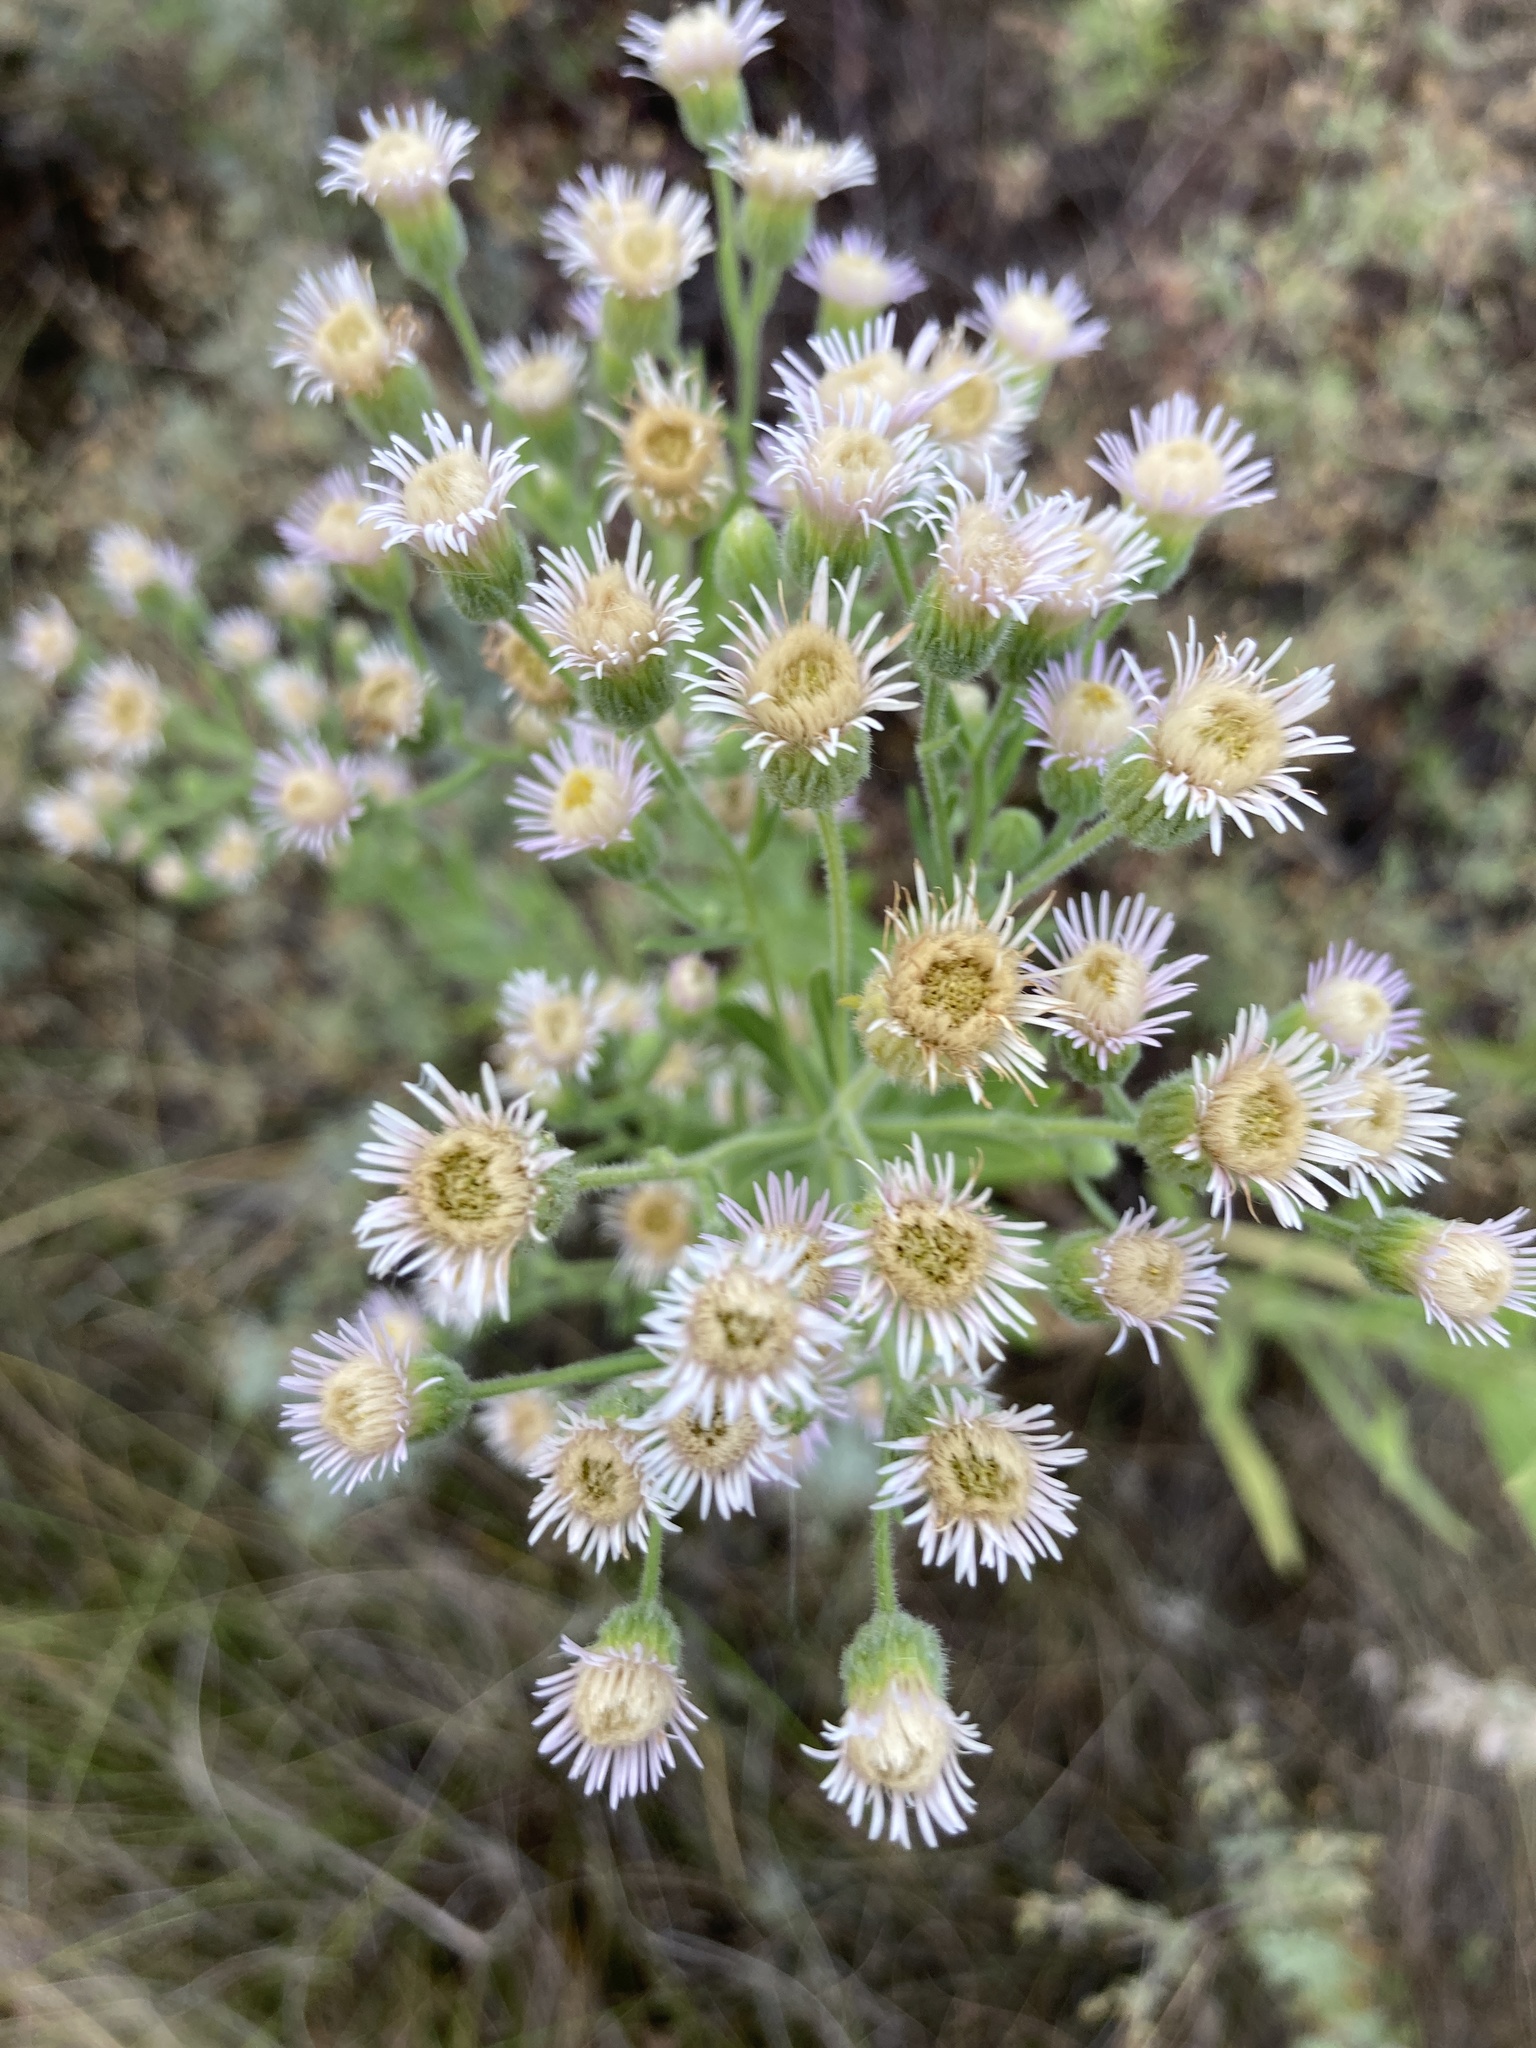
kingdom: Plantae
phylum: Tracheophyta
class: Magnoliopsida
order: Asterales
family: Asteraceae
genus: Erigeron
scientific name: Erigeron podolicus
